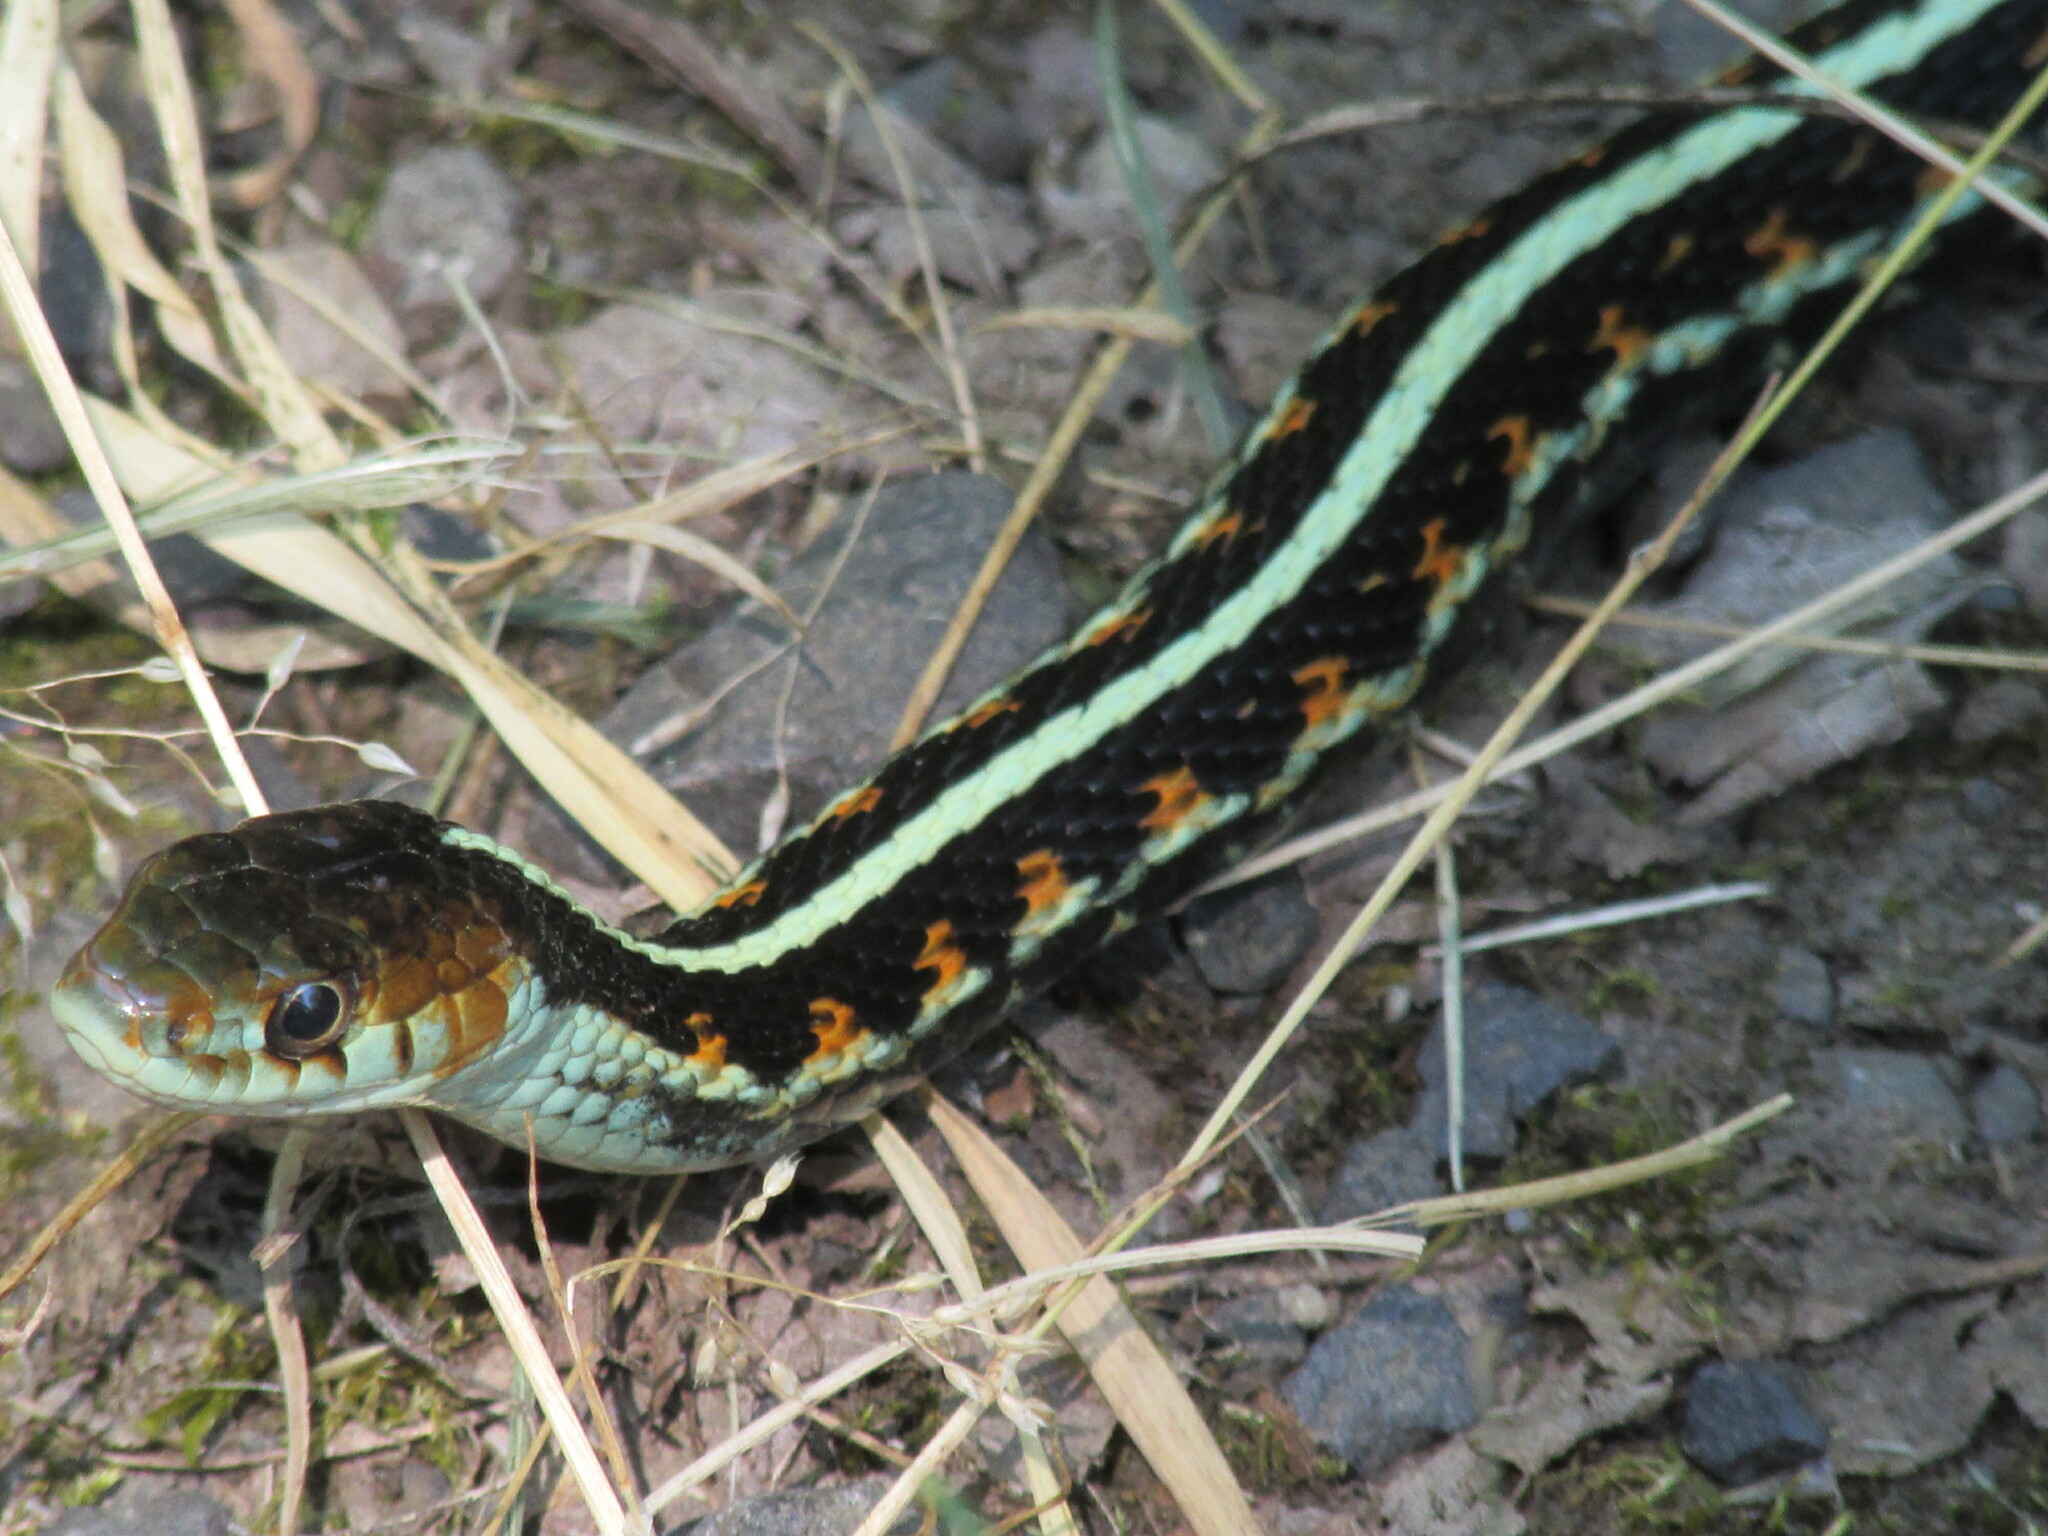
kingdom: Animalia
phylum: Chordata
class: Squamata
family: Colubridae
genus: Thamnophis
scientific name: Thamnophis sirtalis
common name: Common garter snake
